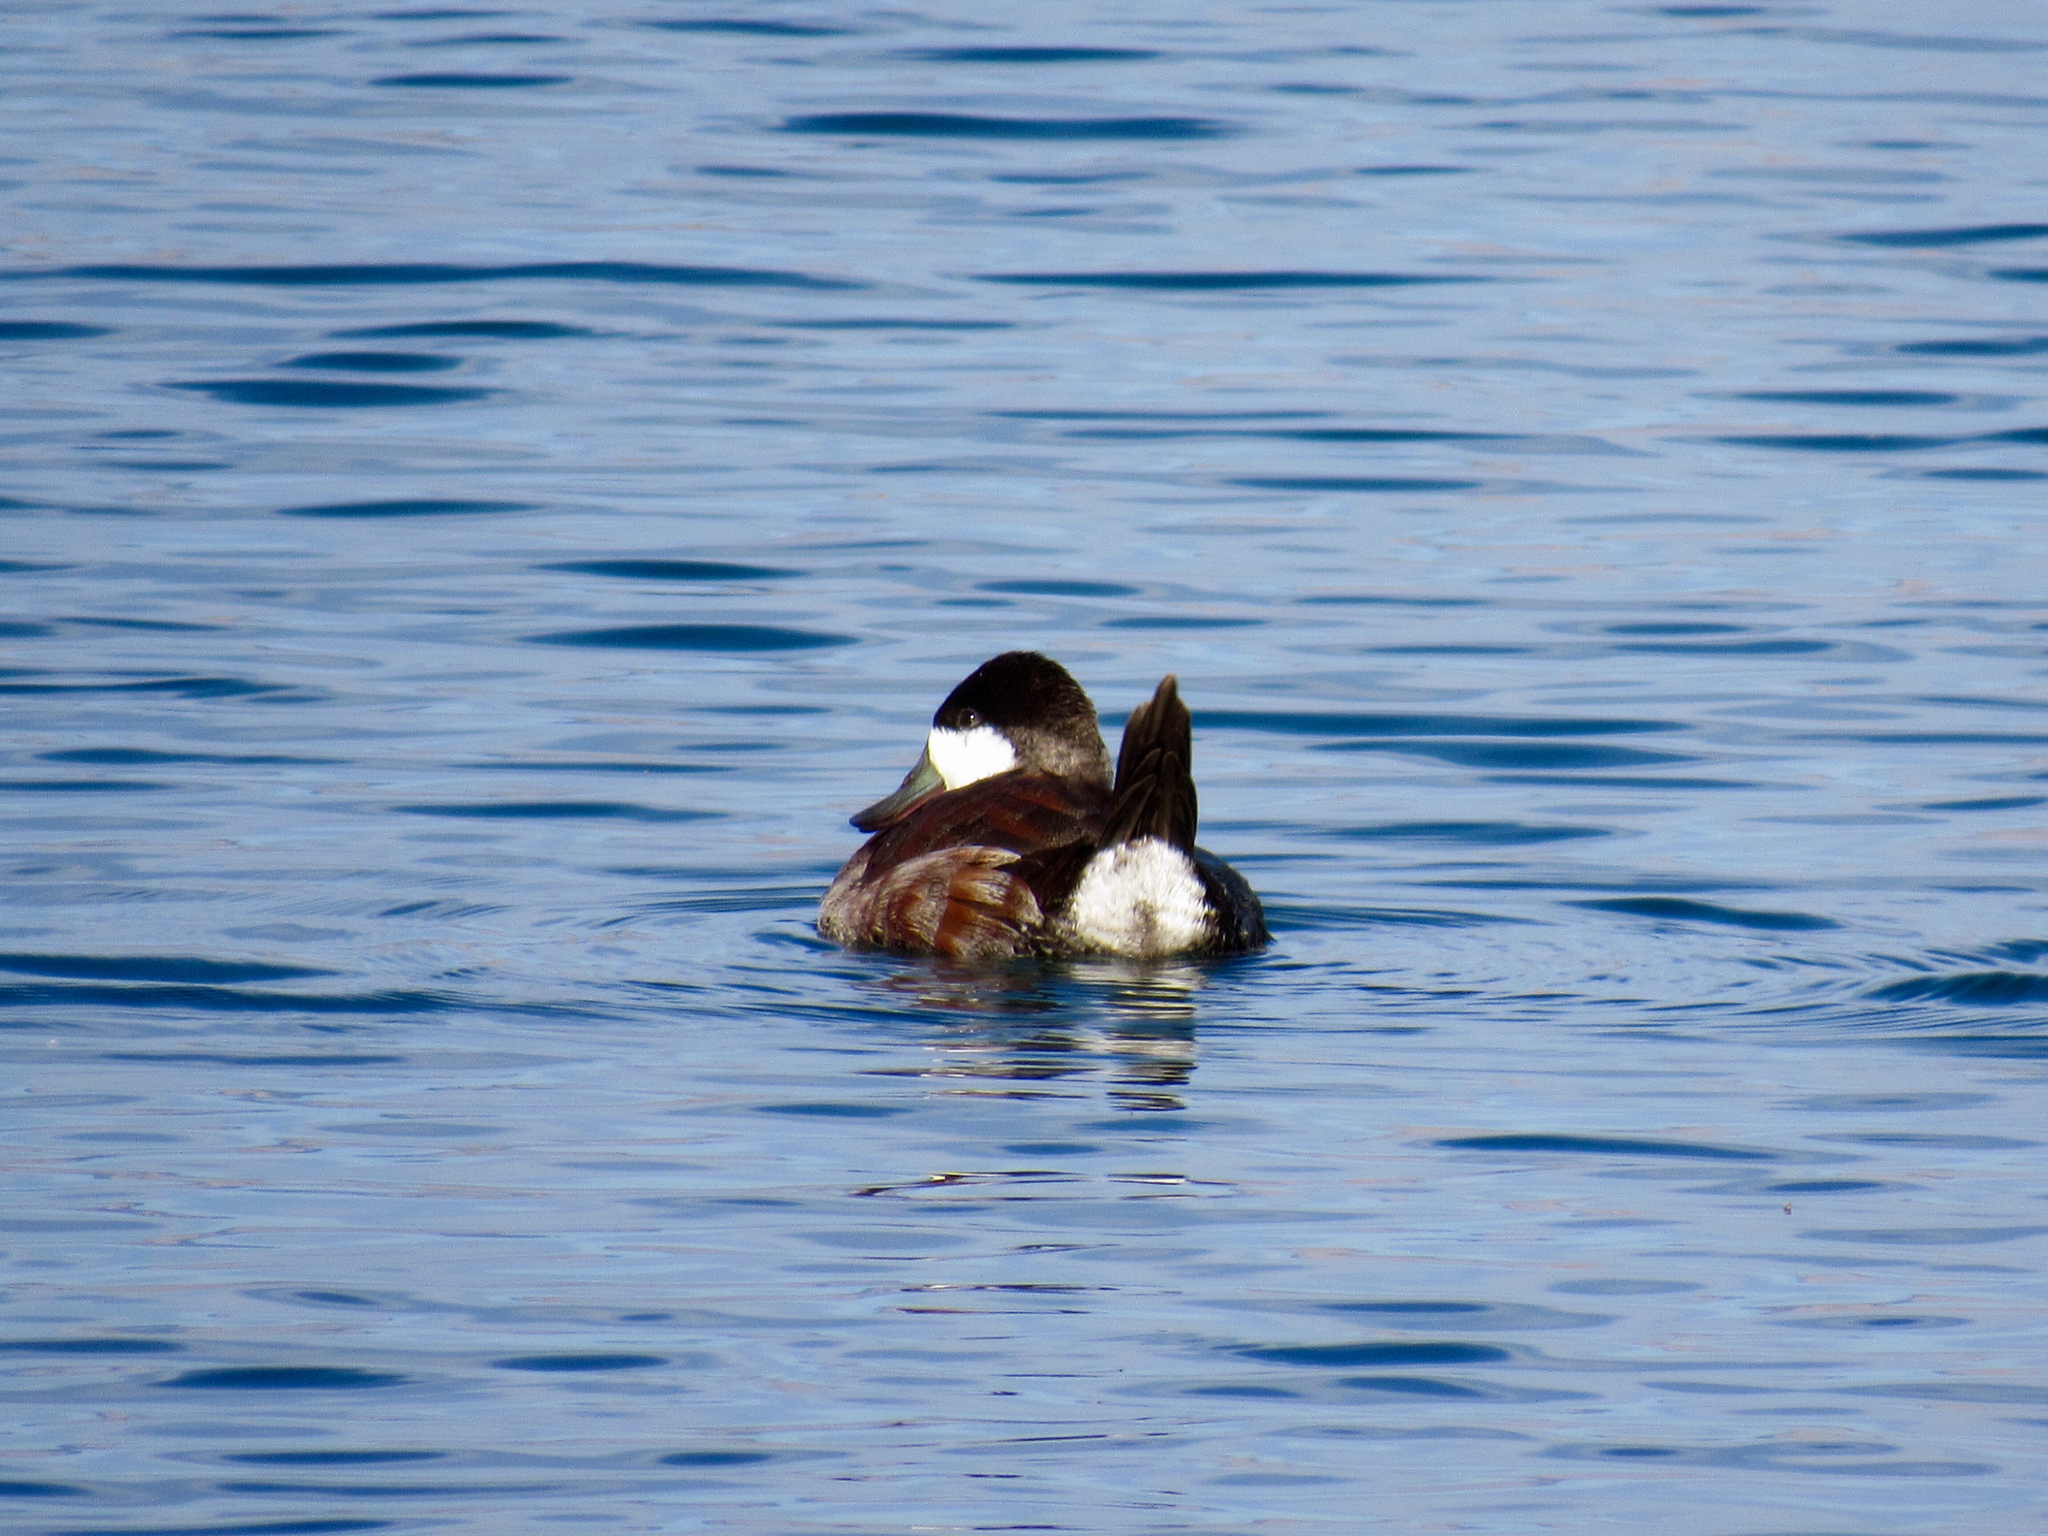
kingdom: Animalia
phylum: Chordata
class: Aves
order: Anseriformes
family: Anatidae
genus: Oxyura
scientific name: Oxyura jamaicensis
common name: Ruddy duck
